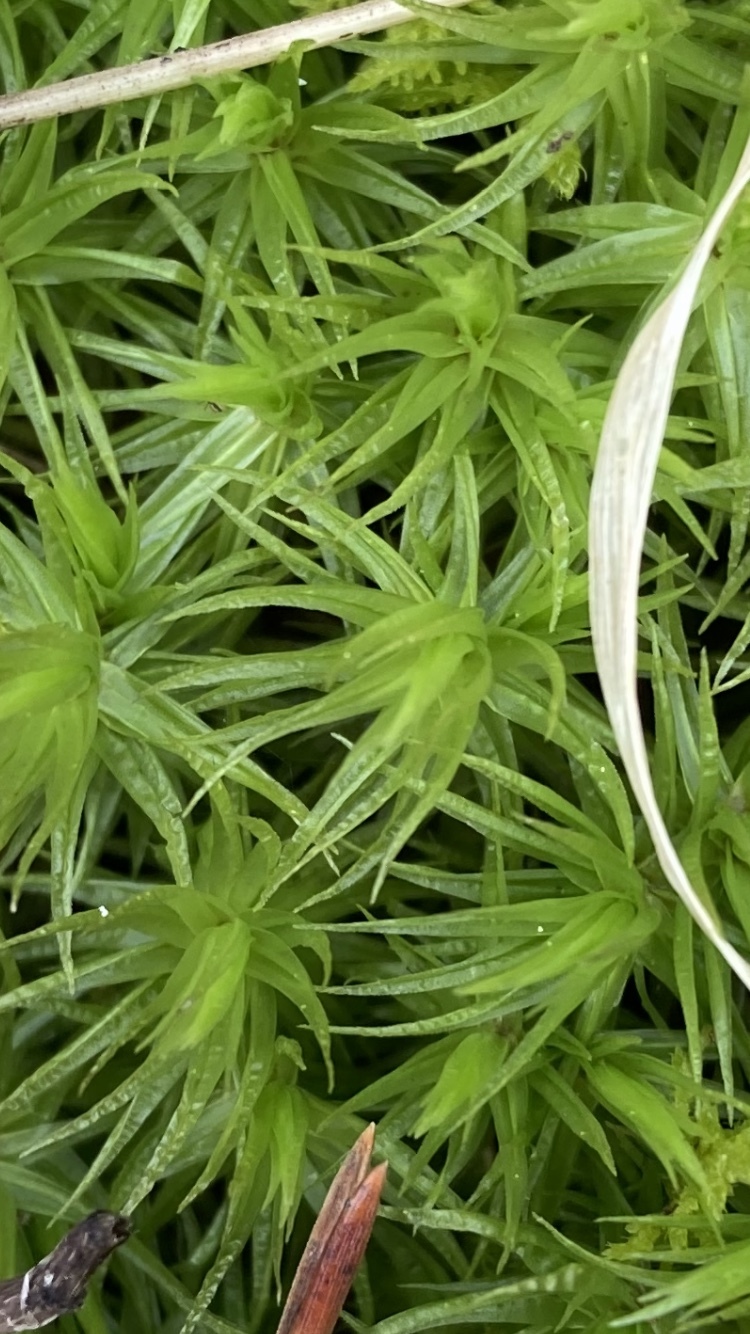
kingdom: Plantae
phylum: Bryophyta
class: Bryopsida
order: Dicranales
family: Dicranaceae
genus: Dicranum
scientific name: Dicranum polysetum
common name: Rugose fork-moss
